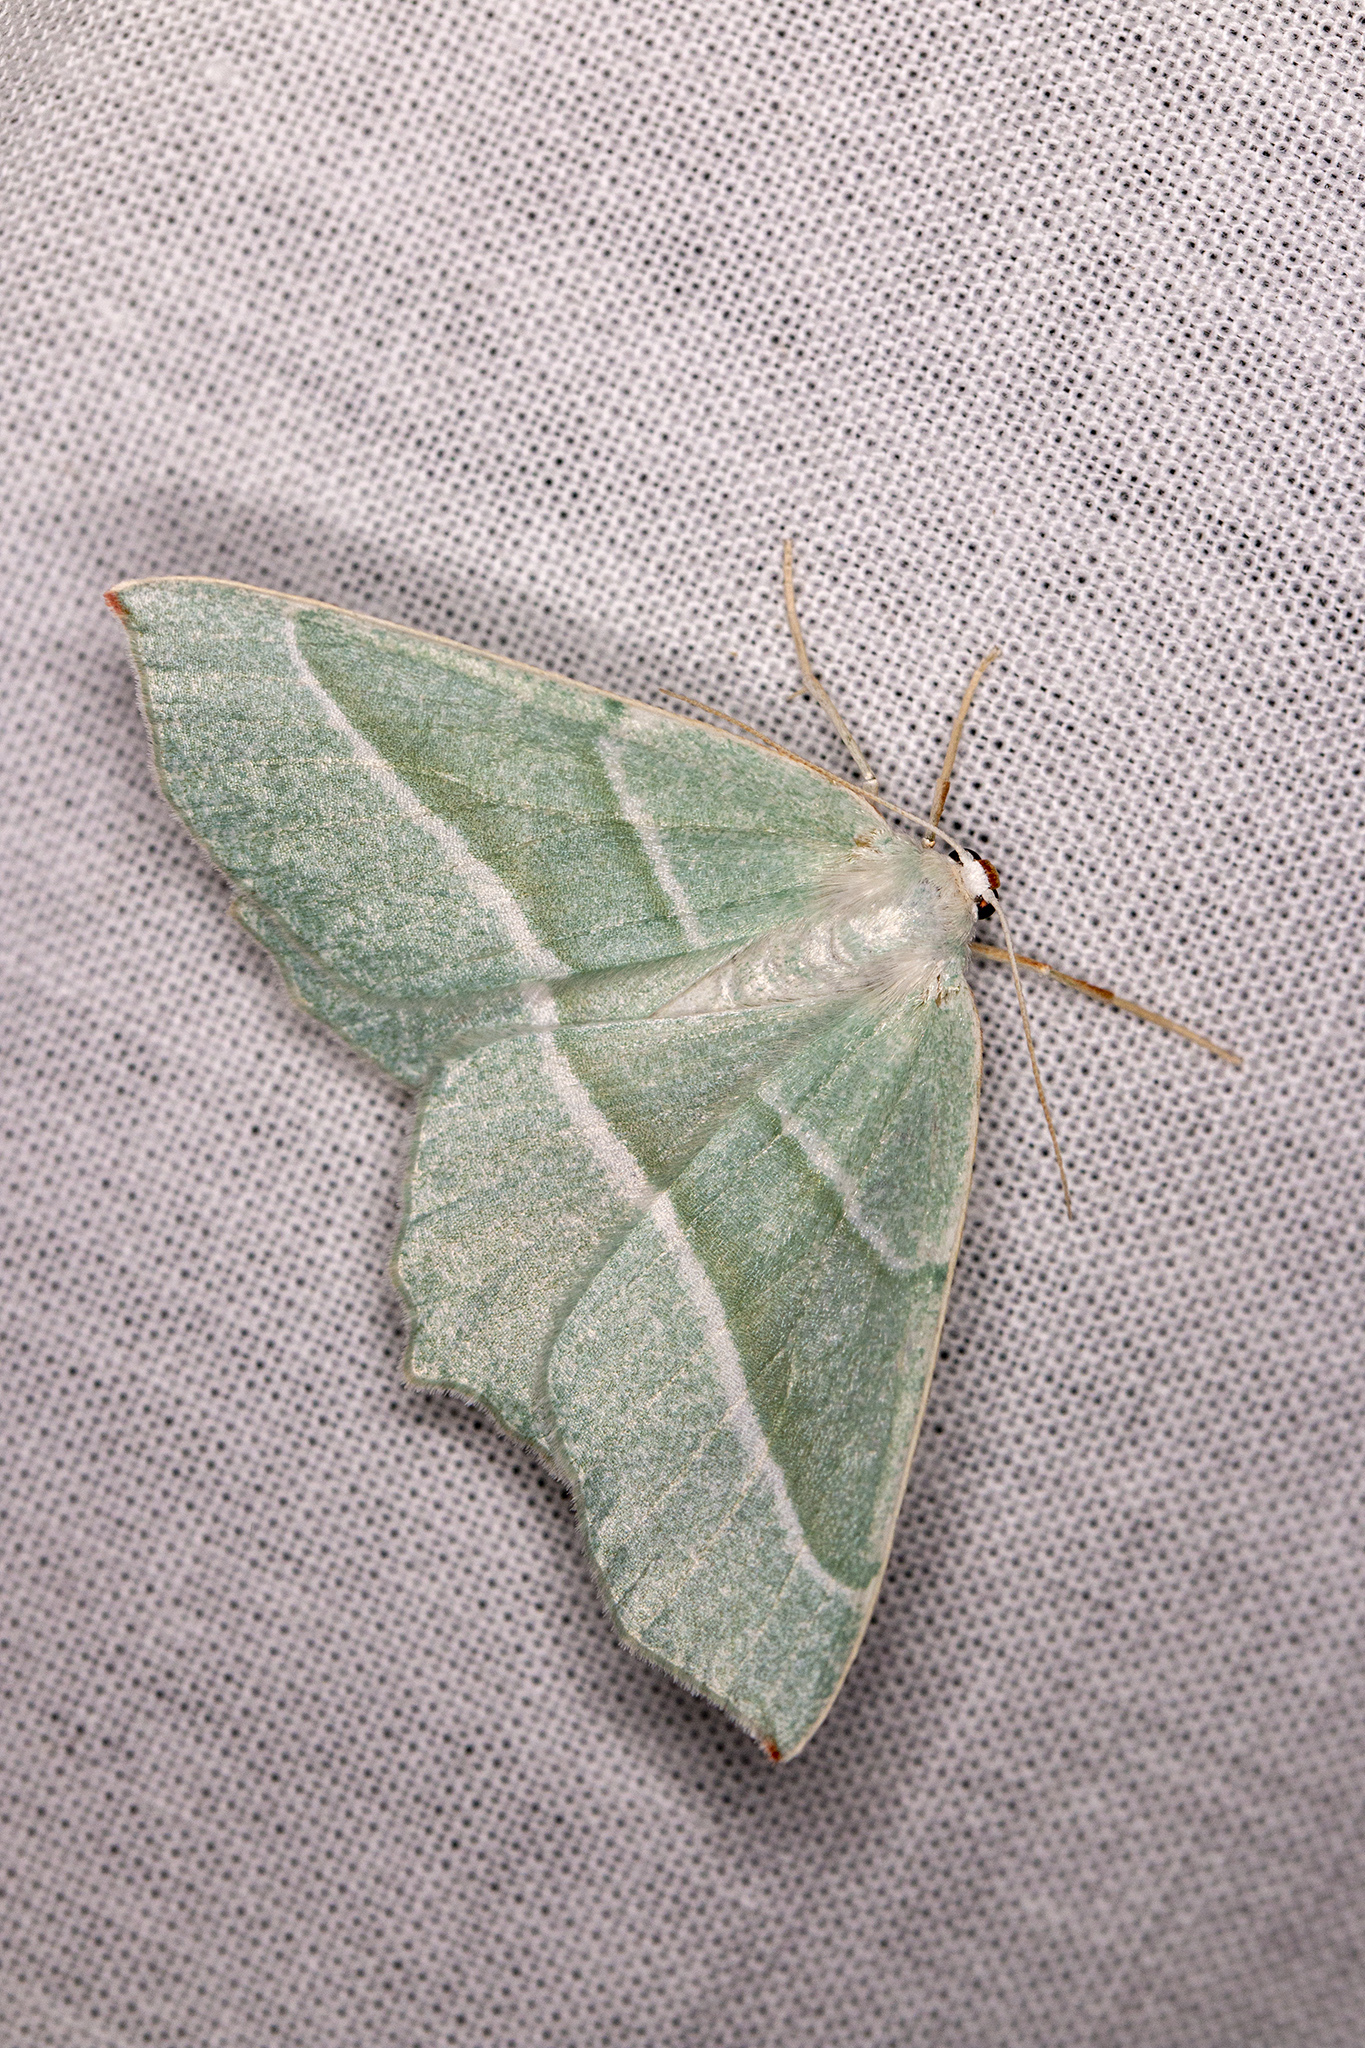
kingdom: Animalia
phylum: Arthropoda
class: Insecta
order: Lepidoptera
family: Geometridae
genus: Campaea
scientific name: Campaea margaritaria
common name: Light emerald
